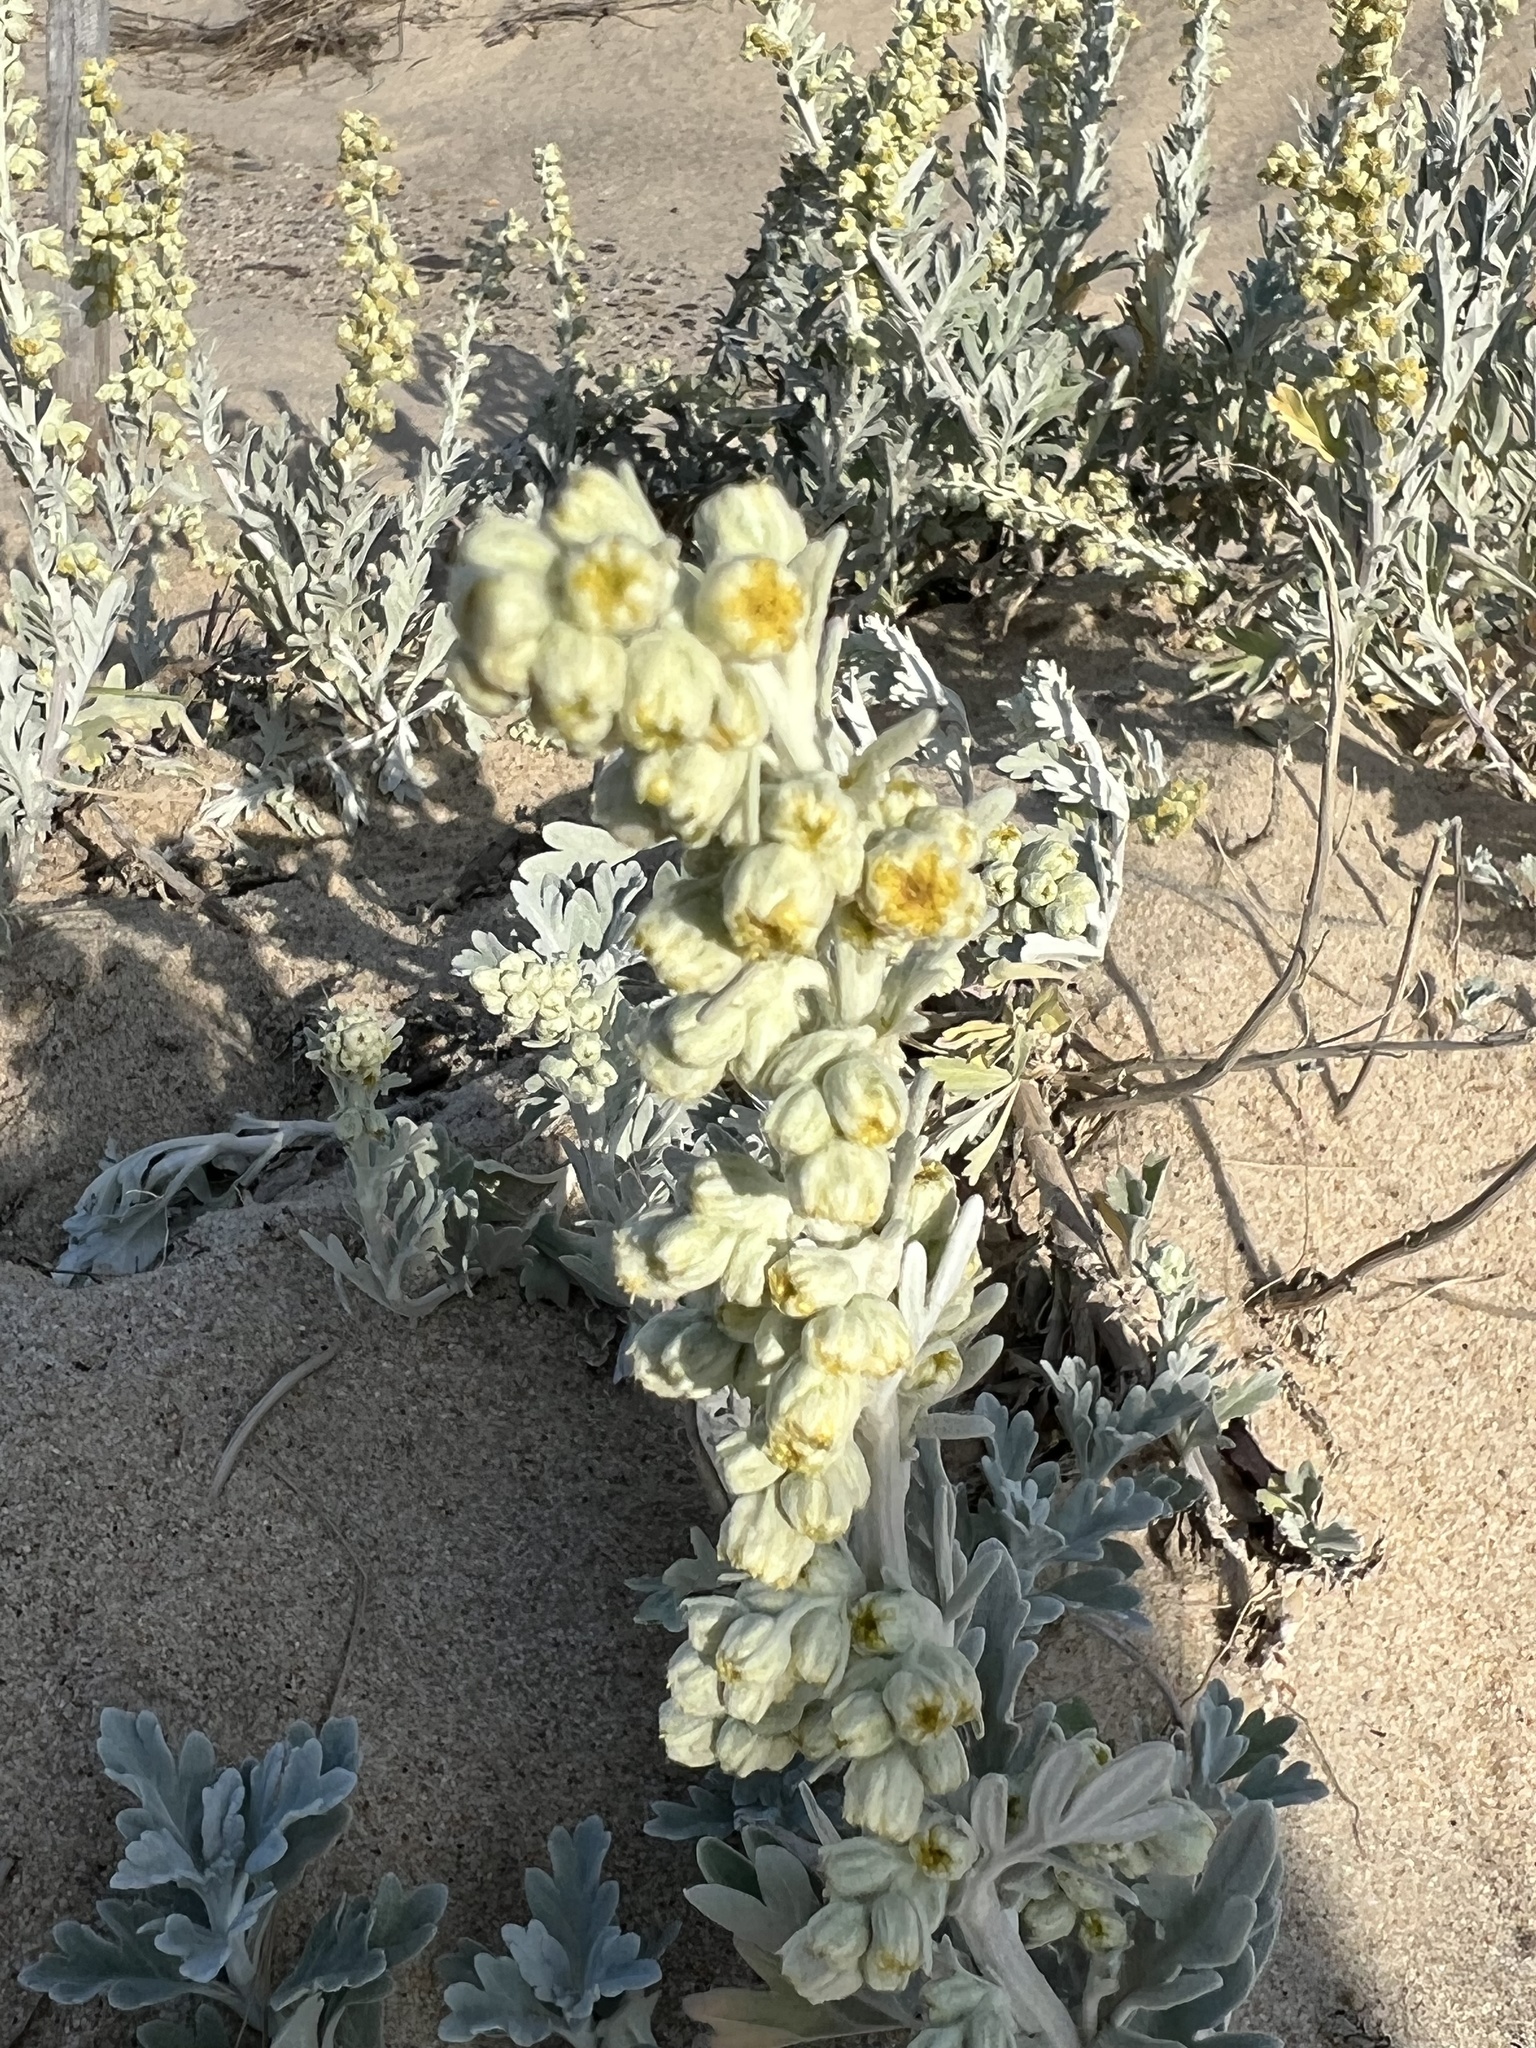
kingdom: Plantae
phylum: Tracheophyta
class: Magnoliopsida
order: Asterales
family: Asteraceae
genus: Artemisia
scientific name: Artemisia stelleriana
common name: Beach wormwood
